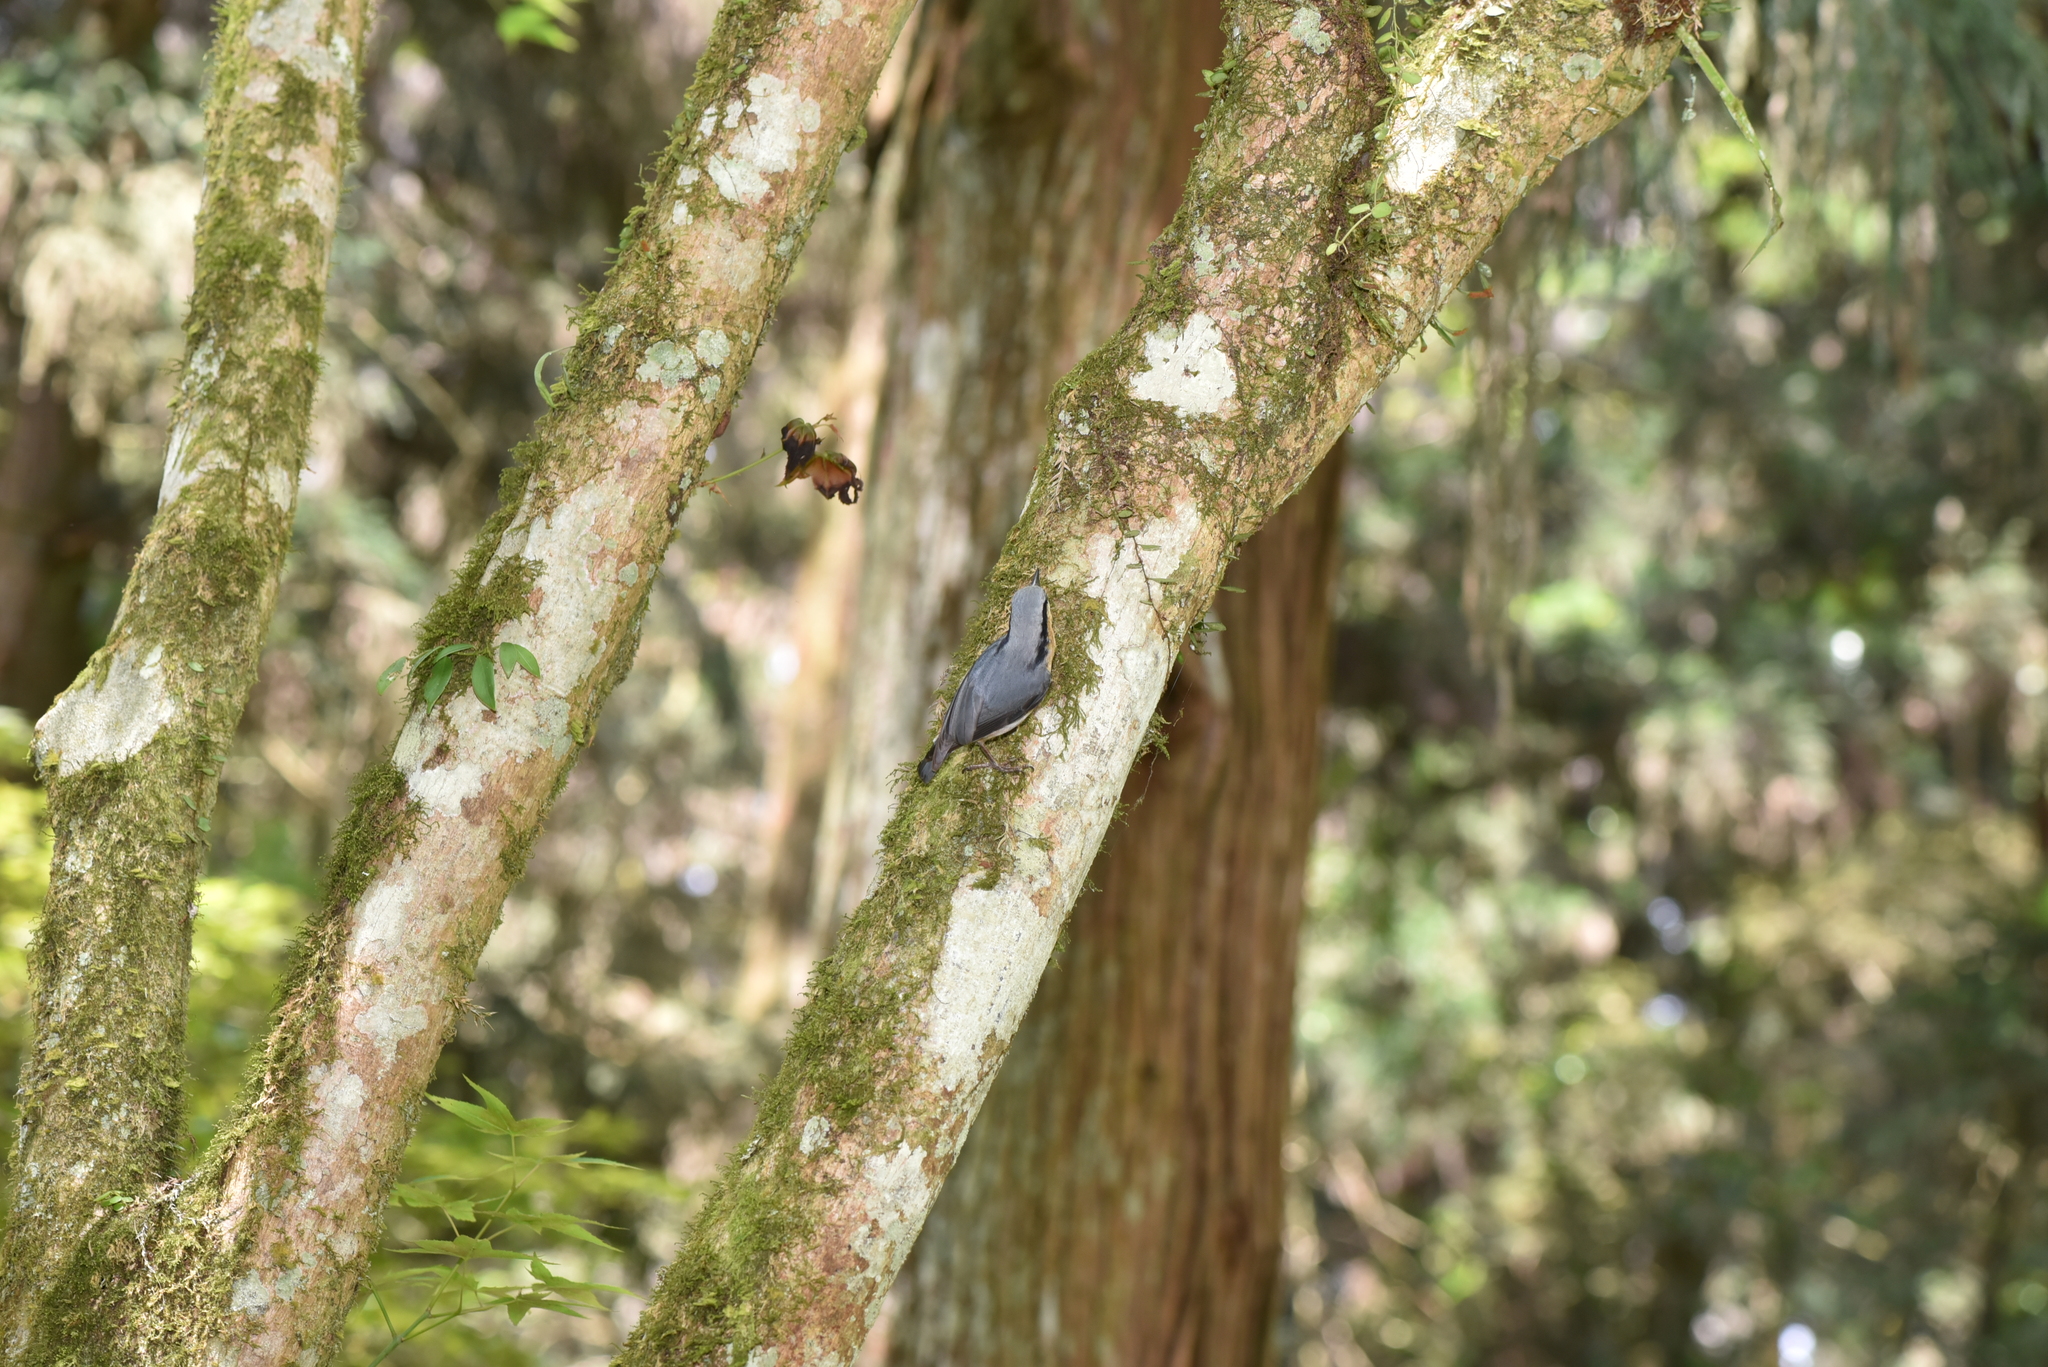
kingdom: Animalia
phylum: Chordata
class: Aves
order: Passeriformes
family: Sittidae
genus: Sitta
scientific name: Sitta europaea
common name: Eurasian nuthatch
